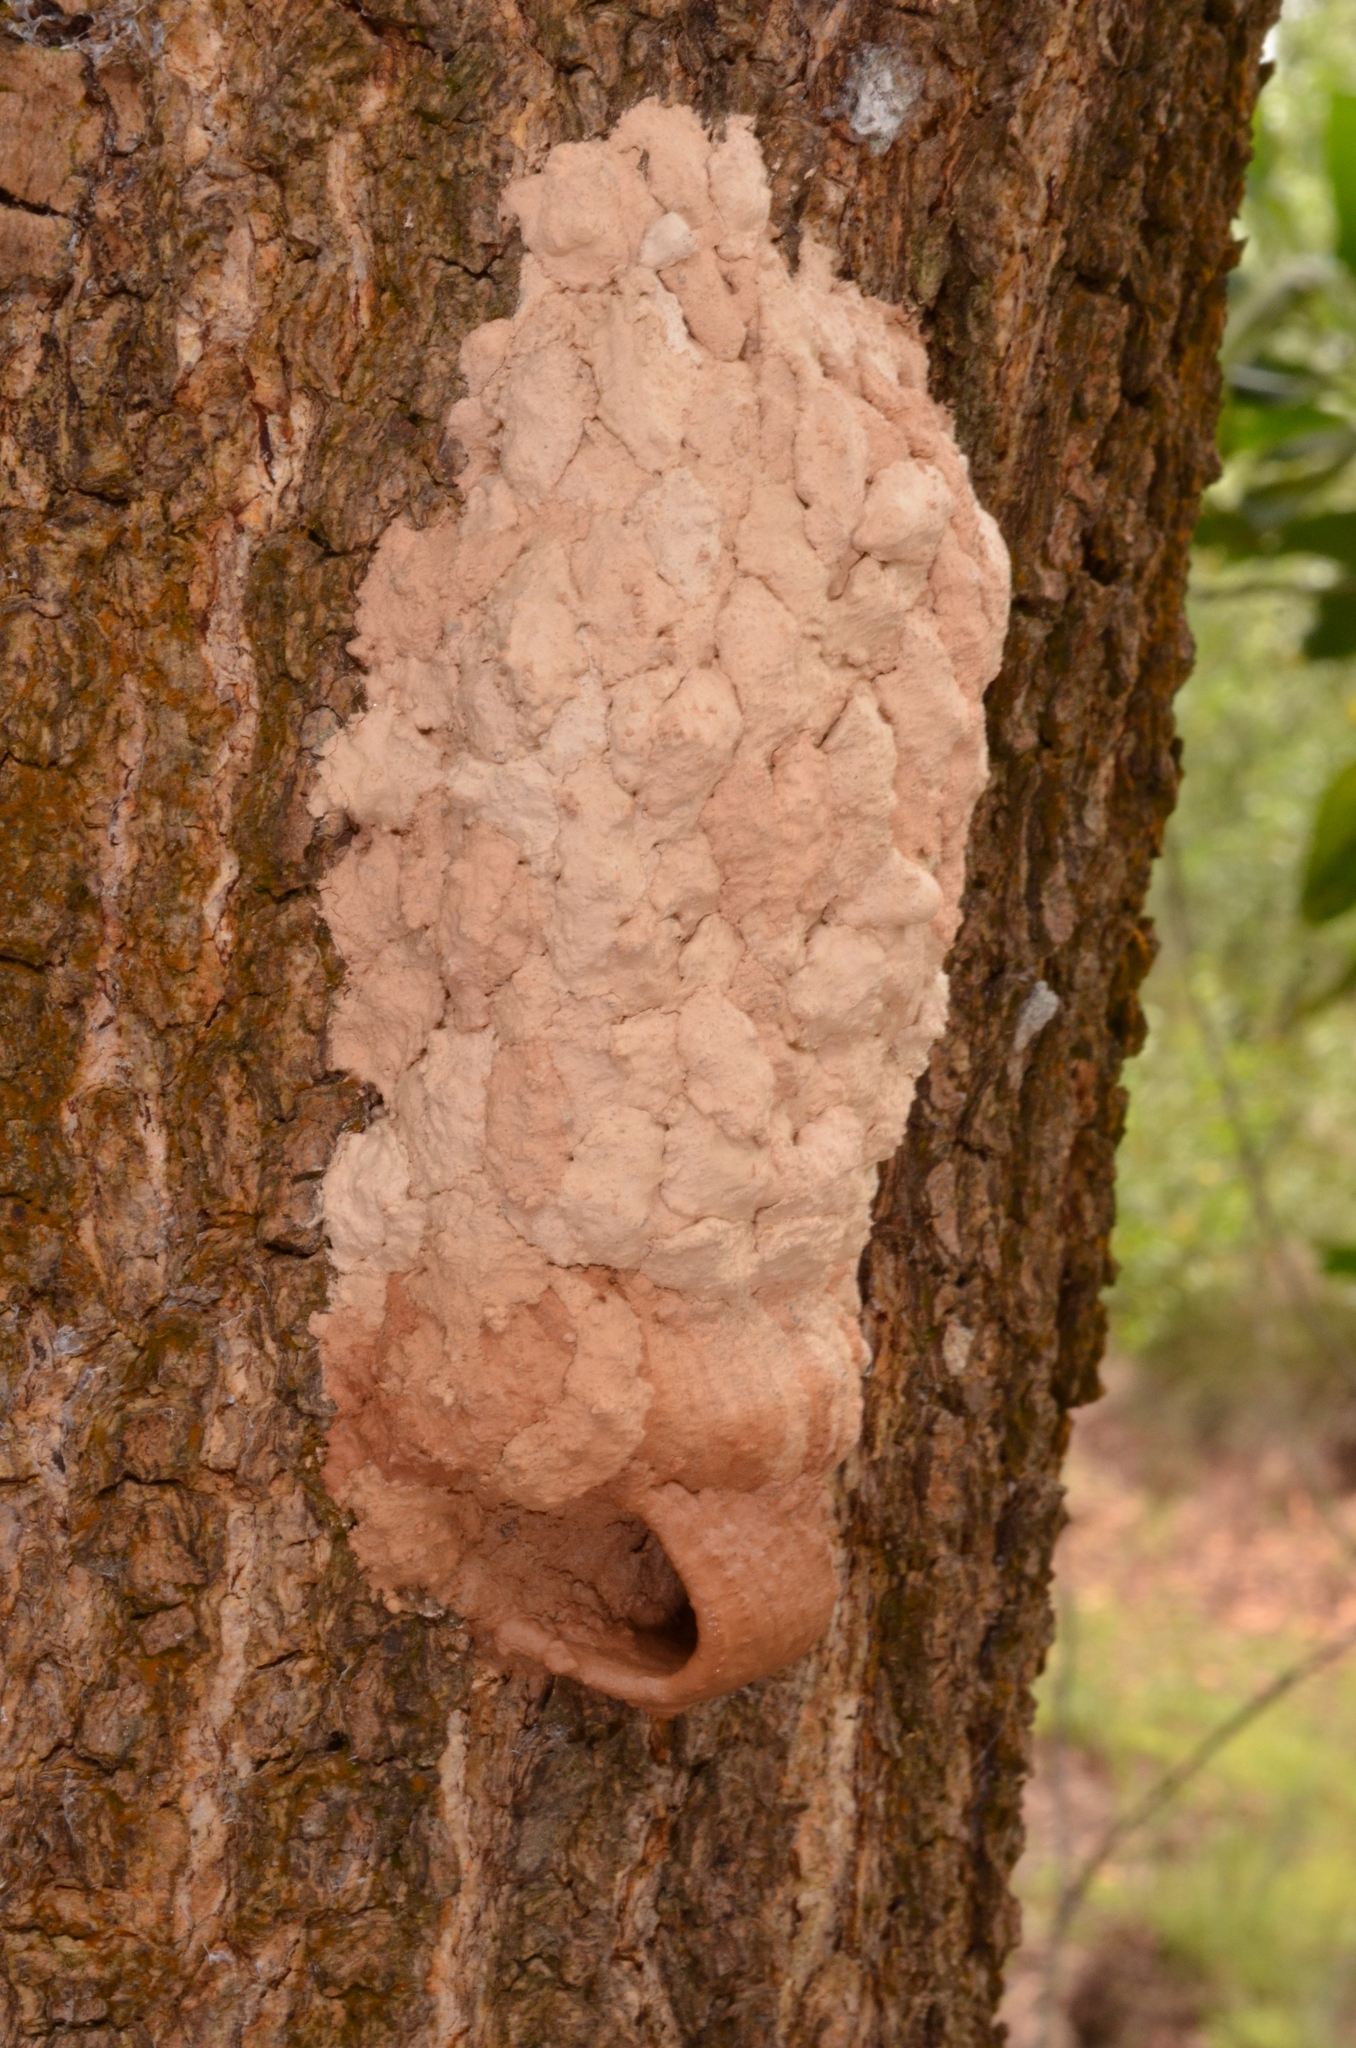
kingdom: Animalia
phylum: Arthropoda
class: Insecta
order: Hymenoptera
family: Sphecidae
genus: Sceliphron
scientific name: Sceliphron madraspatanum
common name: Mud dauber
